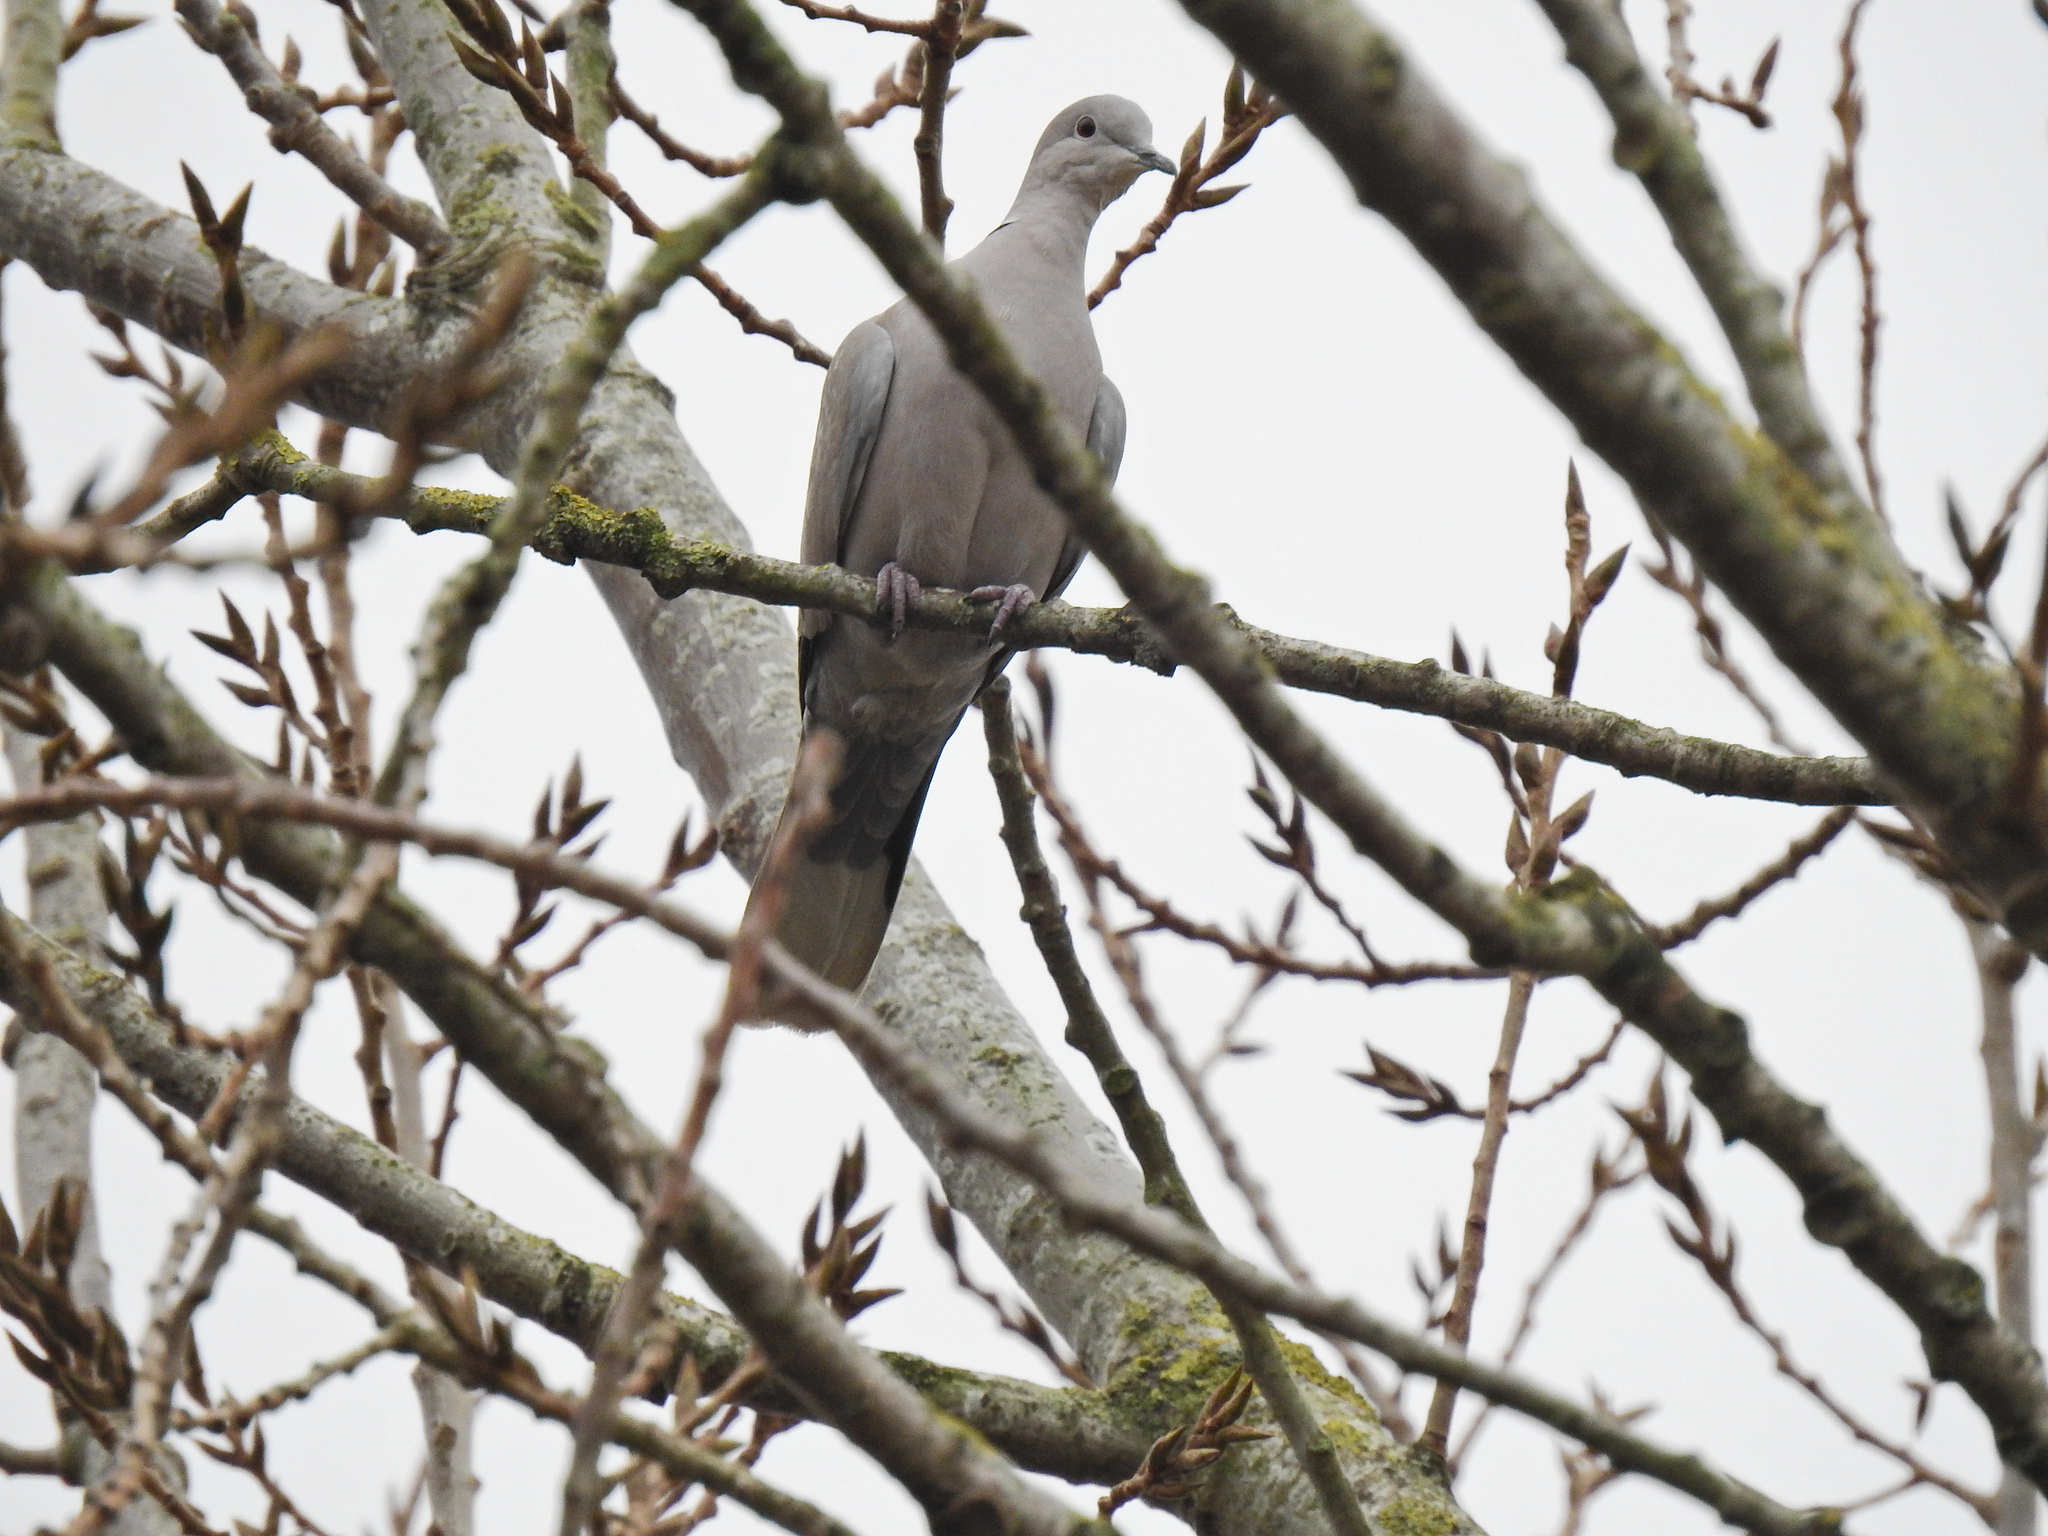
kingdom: Animalia
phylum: Chordata
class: Aves
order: Columbiformes
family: Columbidae
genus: Streptopelia
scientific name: Streptopelia decaocto
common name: Eurasian collared dove
